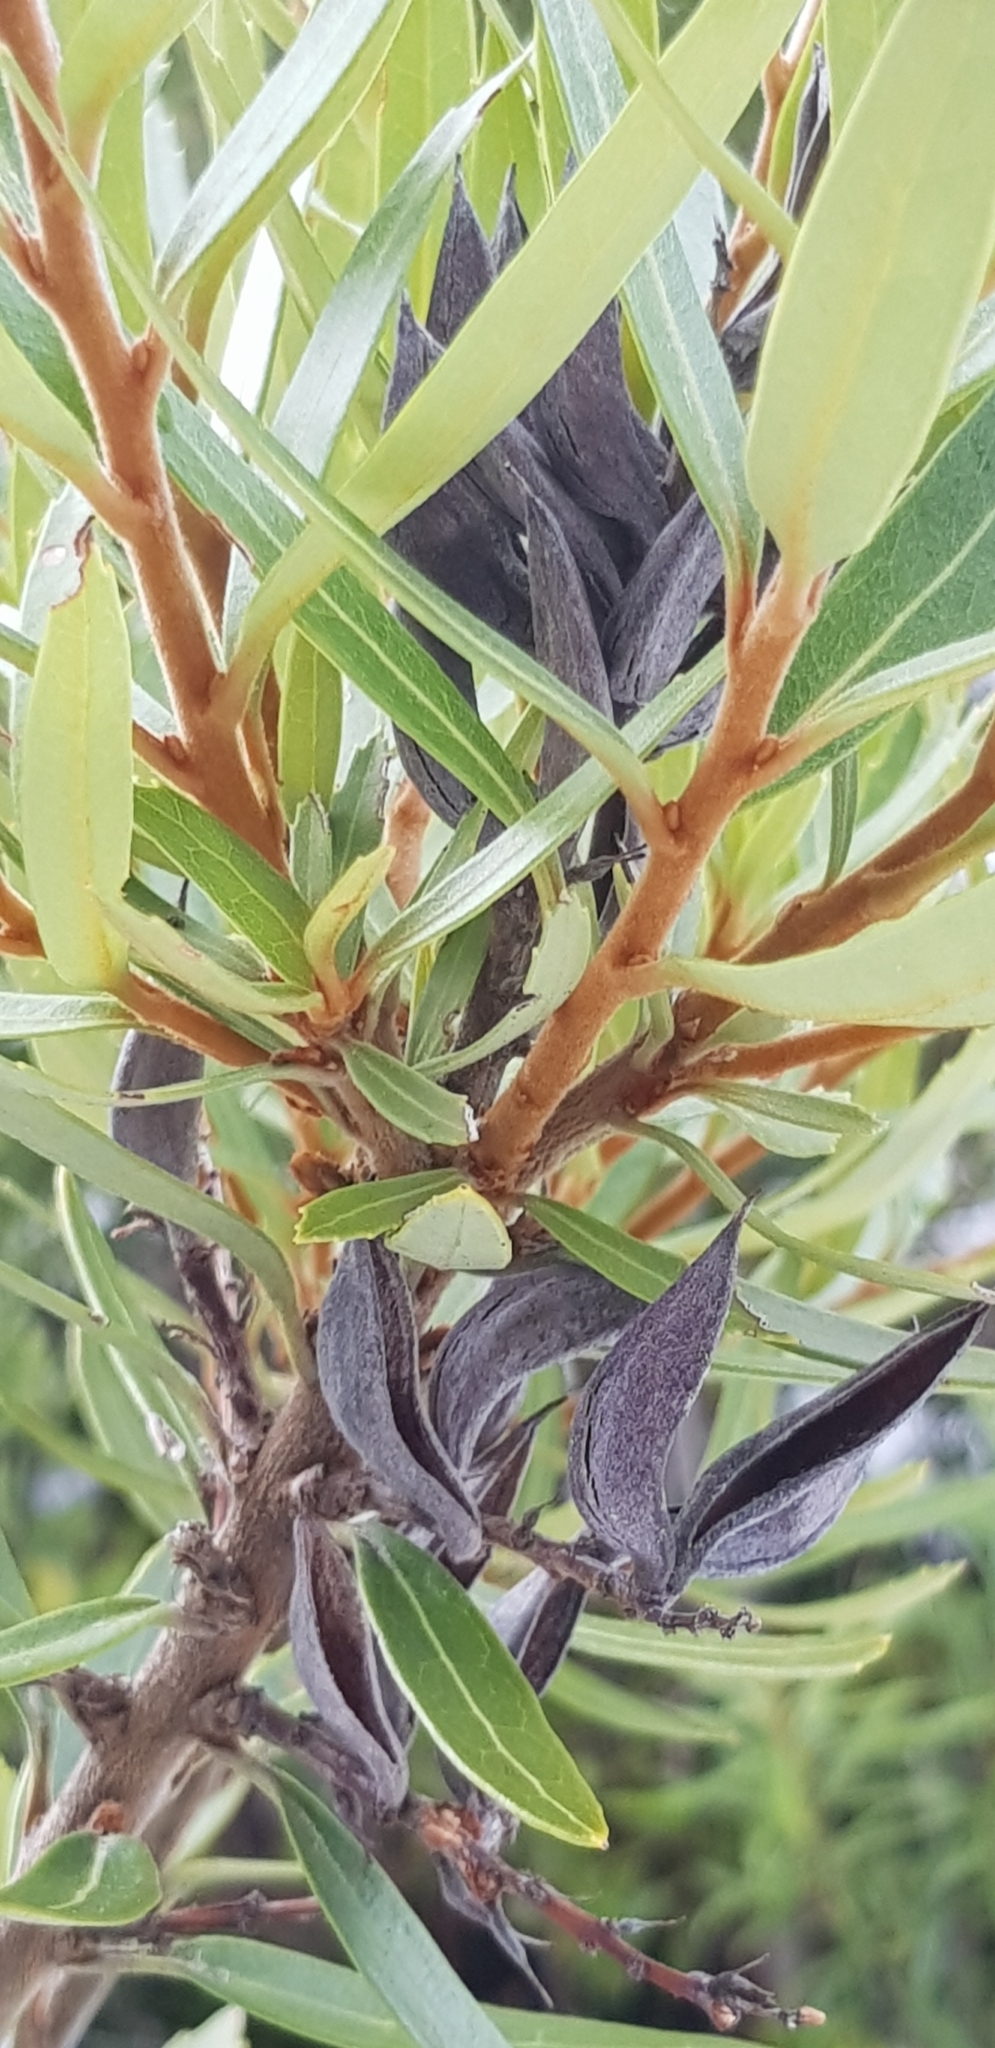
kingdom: Plantae
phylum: Tracheophyta
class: Magnoliopsida
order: Proteales
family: Proteaceae
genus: Orites
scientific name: Orites diversifolius
